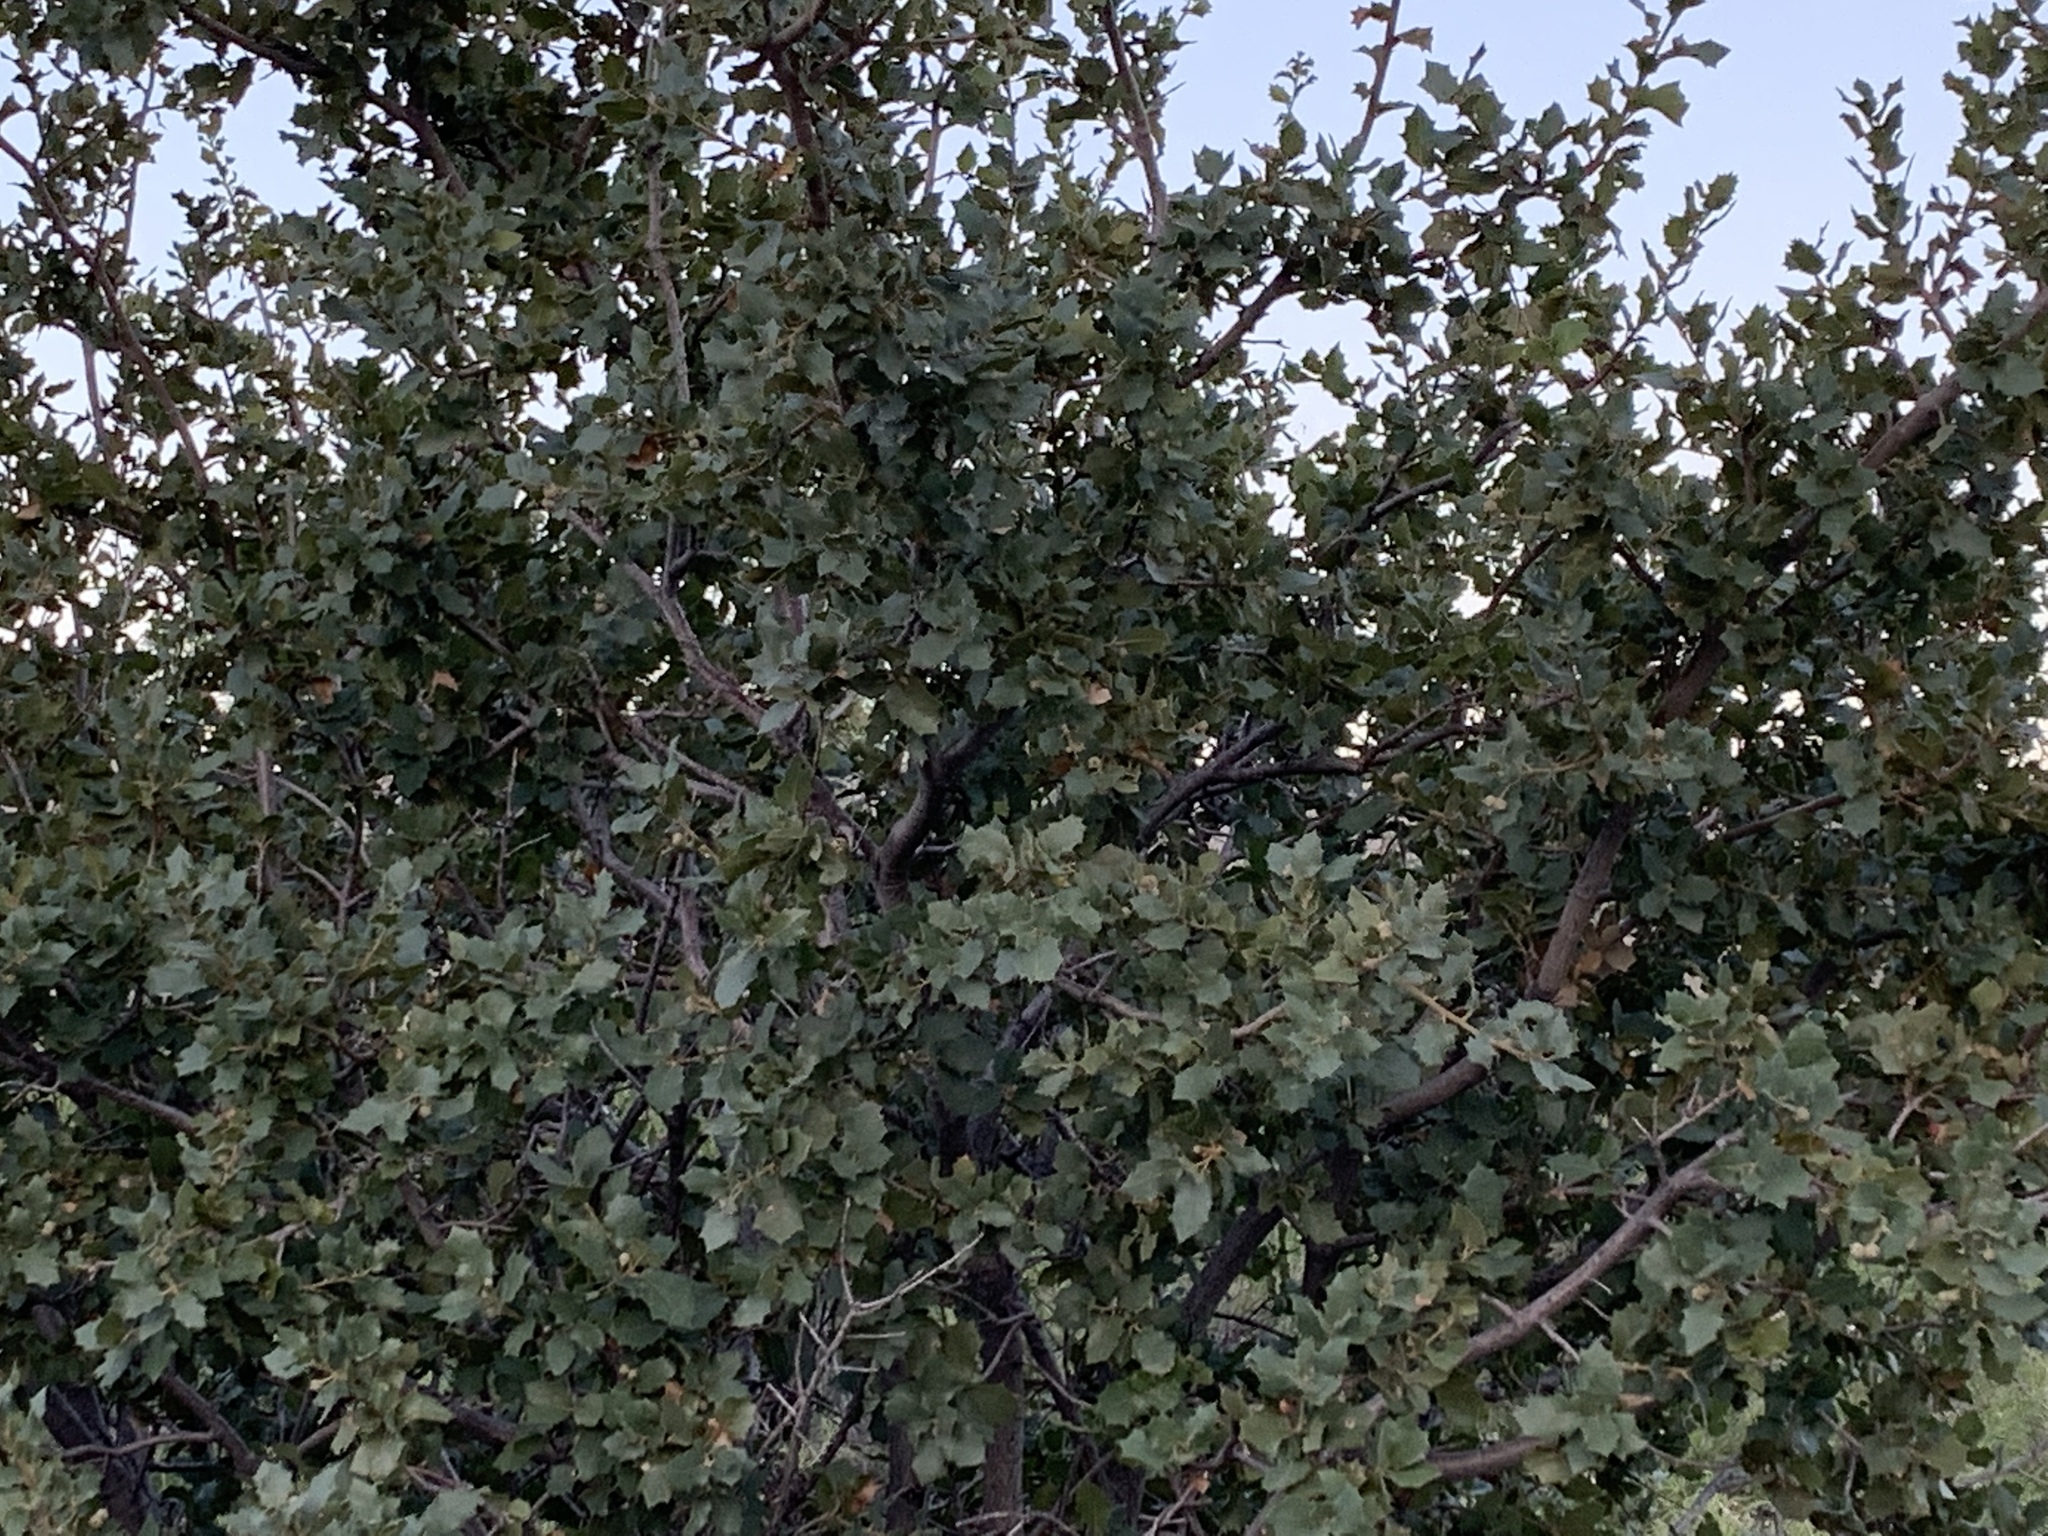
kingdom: Plantae
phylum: Tracheophyta
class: Magnoliopsida
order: Fagales
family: Fagaceae
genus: Quercus
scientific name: Quercus turbinella
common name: Sonoran scrub oak
